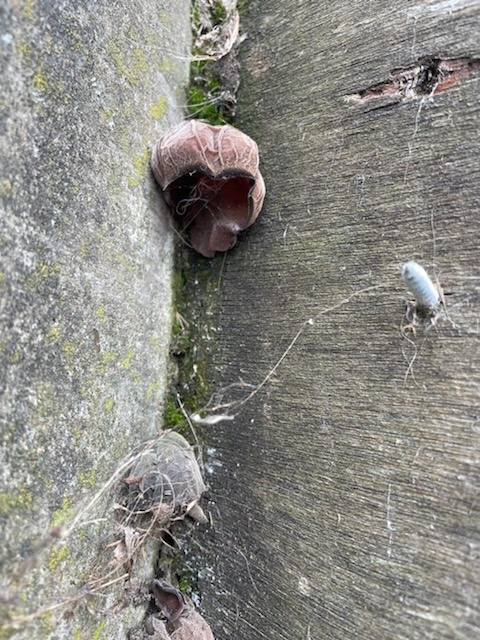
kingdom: Fungi
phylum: Basidiomycota
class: Agaricomycetes
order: Auriculariales
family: Auriculariaceae
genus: Auricularia
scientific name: Auricularia auricula-judae
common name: Jelly ear
